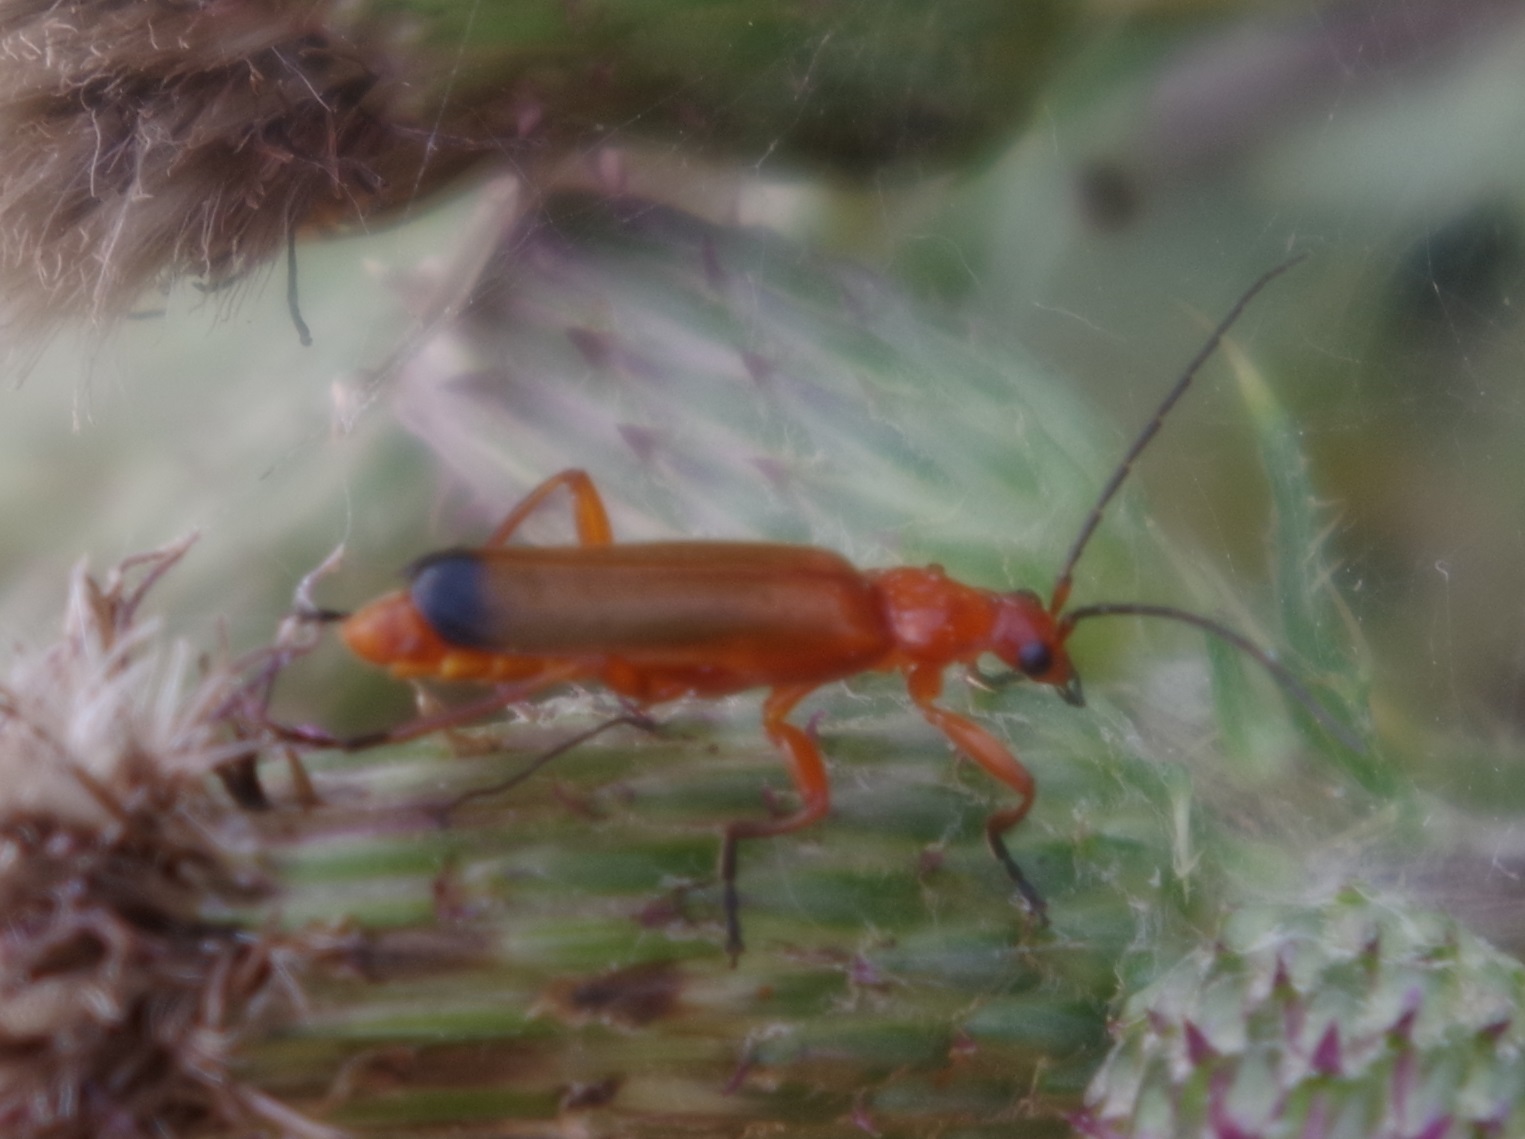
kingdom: Animalia
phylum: Arthropoda
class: Insecta
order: Coleoptera
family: Cantharidae
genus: Rhagonycha
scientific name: Rhagonycha fulva
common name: Common red soldier beetle
